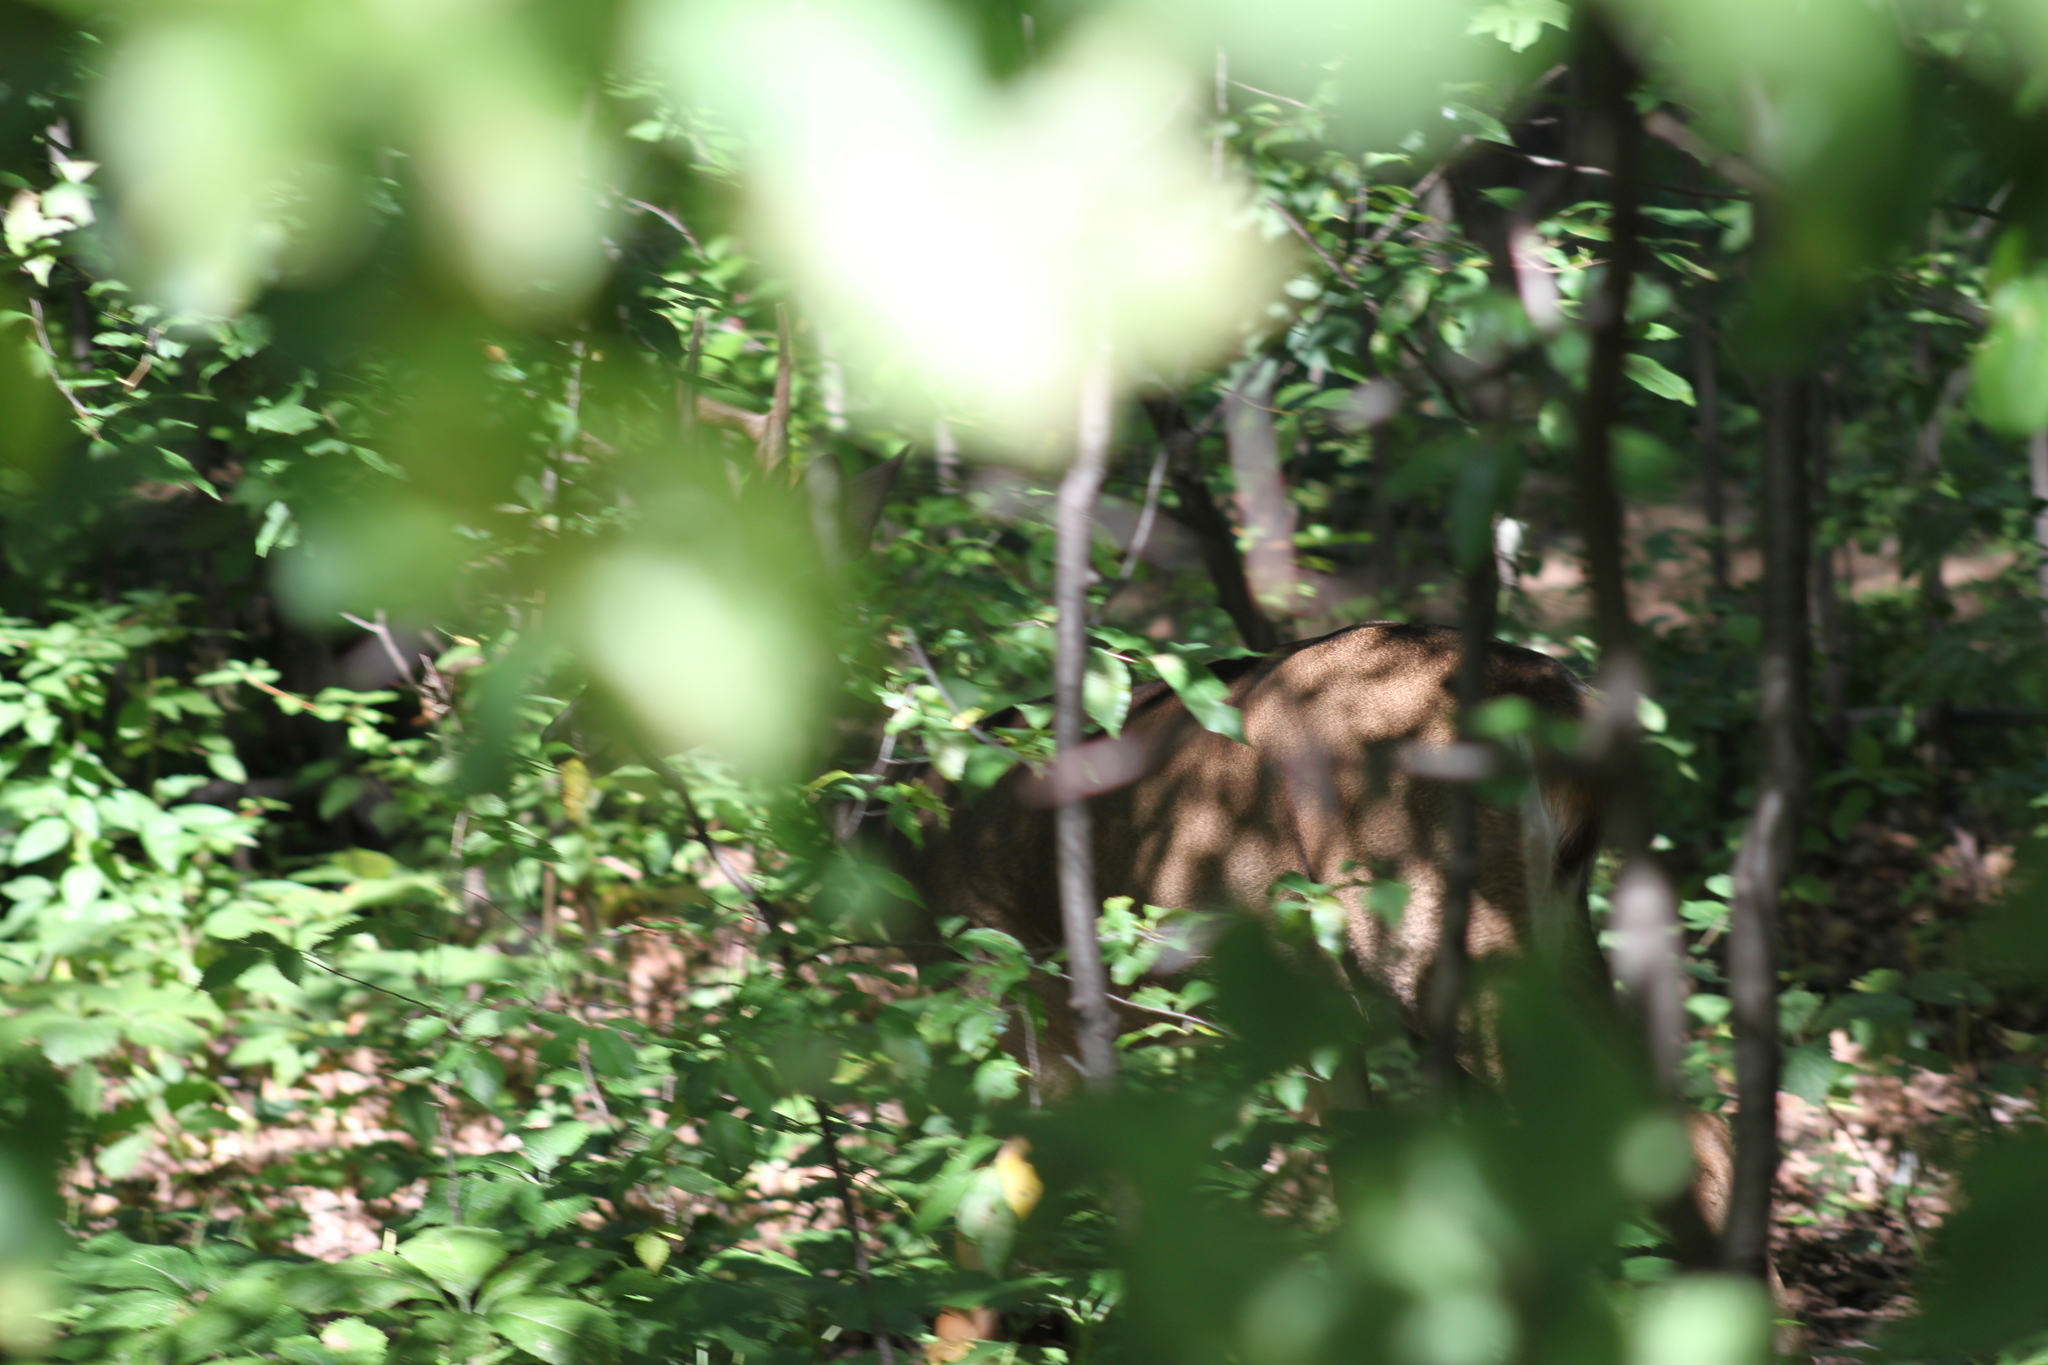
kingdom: Animalia
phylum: Chordata
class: Mammalia
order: Artiodactyla
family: Cervidae
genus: Odocoileus
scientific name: Odocoileus virginianus
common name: White-tailed deer
